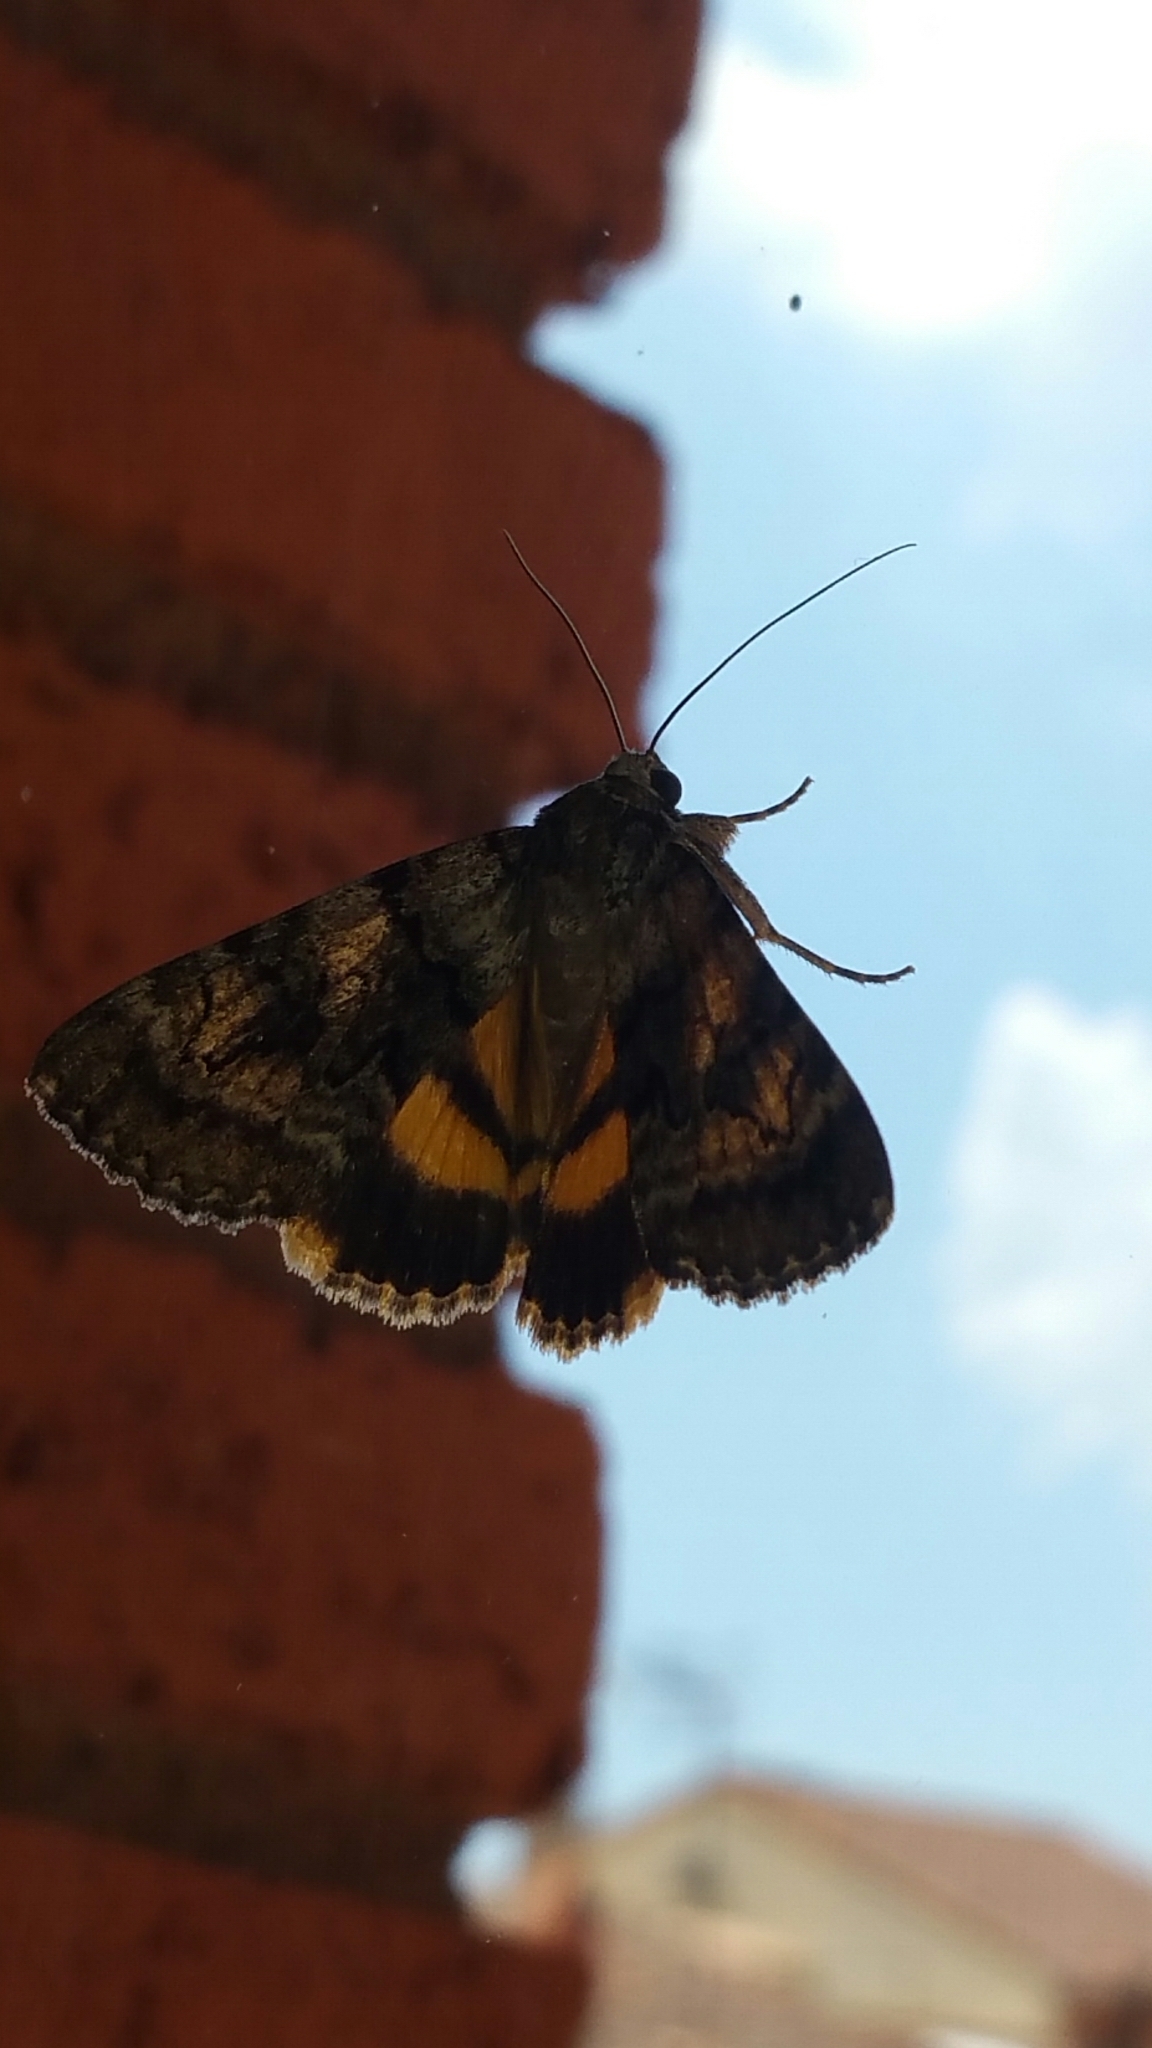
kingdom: Animalia
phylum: Arthropoda
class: Insecta
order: Lepidoptera
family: Erebidae
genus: Catocala
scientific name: Catocala nymphagoga
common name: Oak yellow underwing
